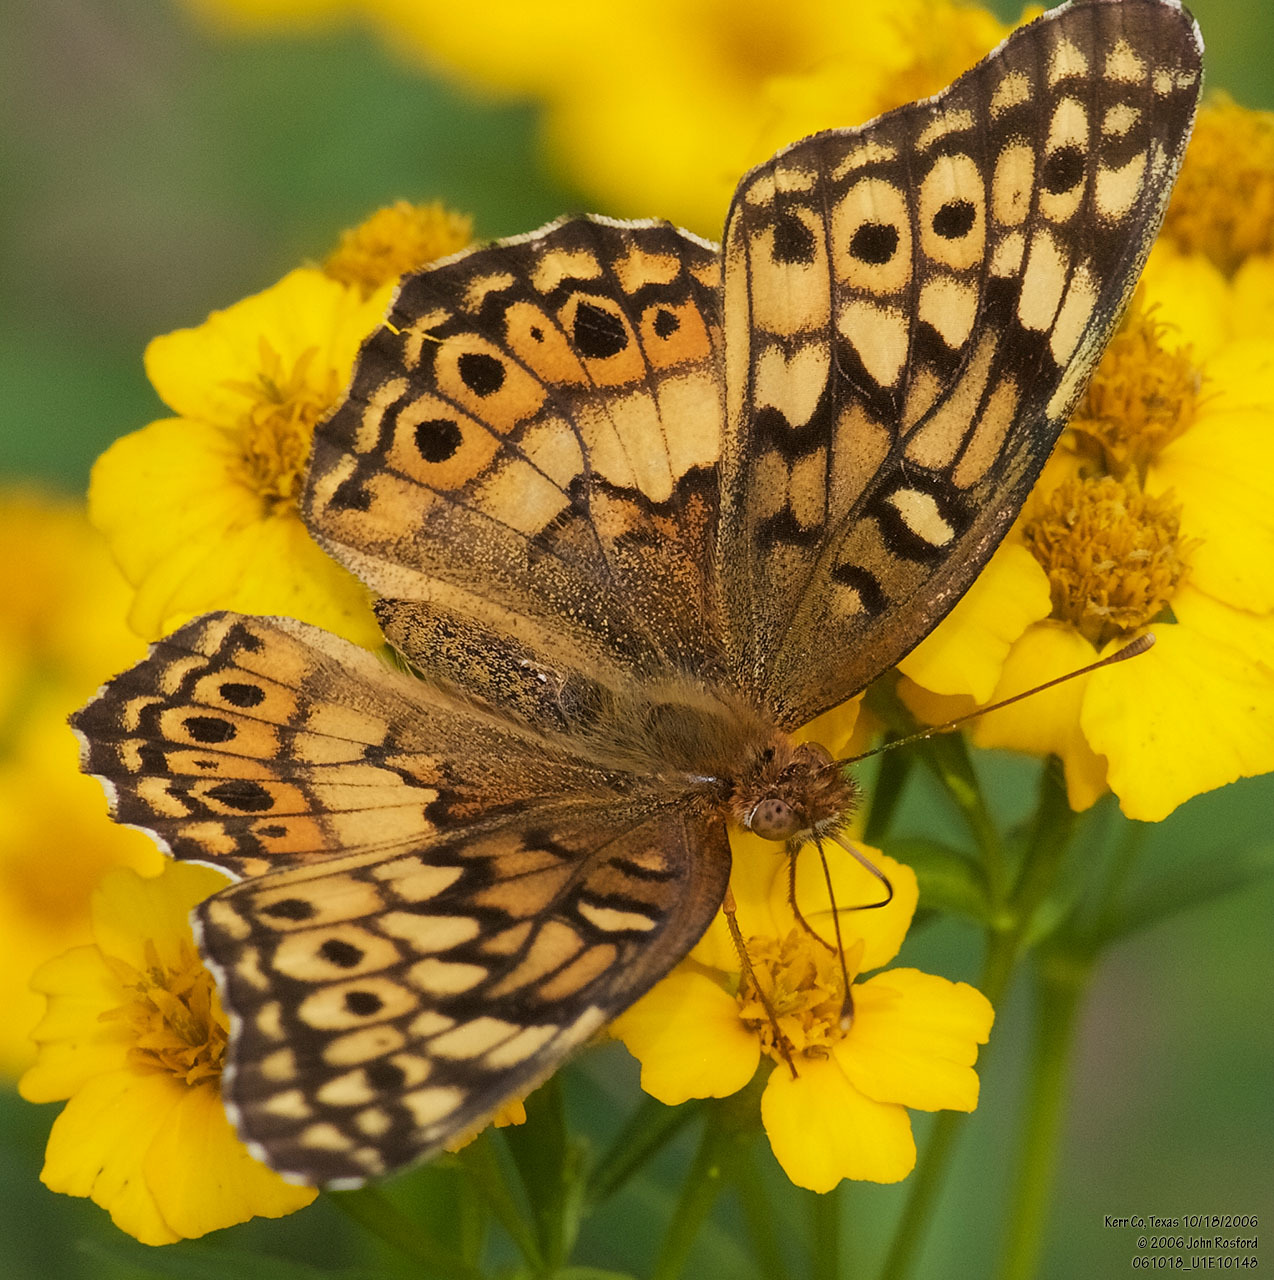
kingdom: Animalia
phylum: Arthropoda
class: Insecta
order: Lepidoptera
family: Nymphalidae
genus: Euptoieta
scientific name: Euptoieta claudia
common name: Variegated fritillary
